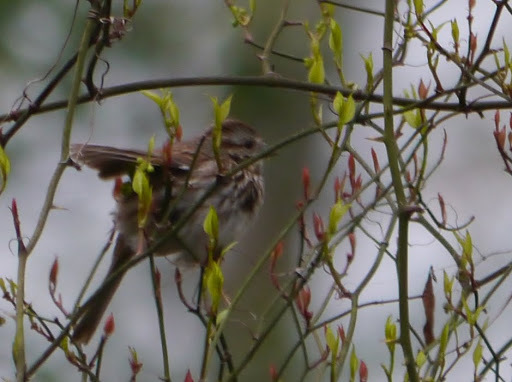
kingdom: Animalia
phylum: Chordata
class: Aves
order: Passeriformes
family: Passerellidae
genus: Melospiza
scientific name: Melospiza melodia
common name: Song sparrow
